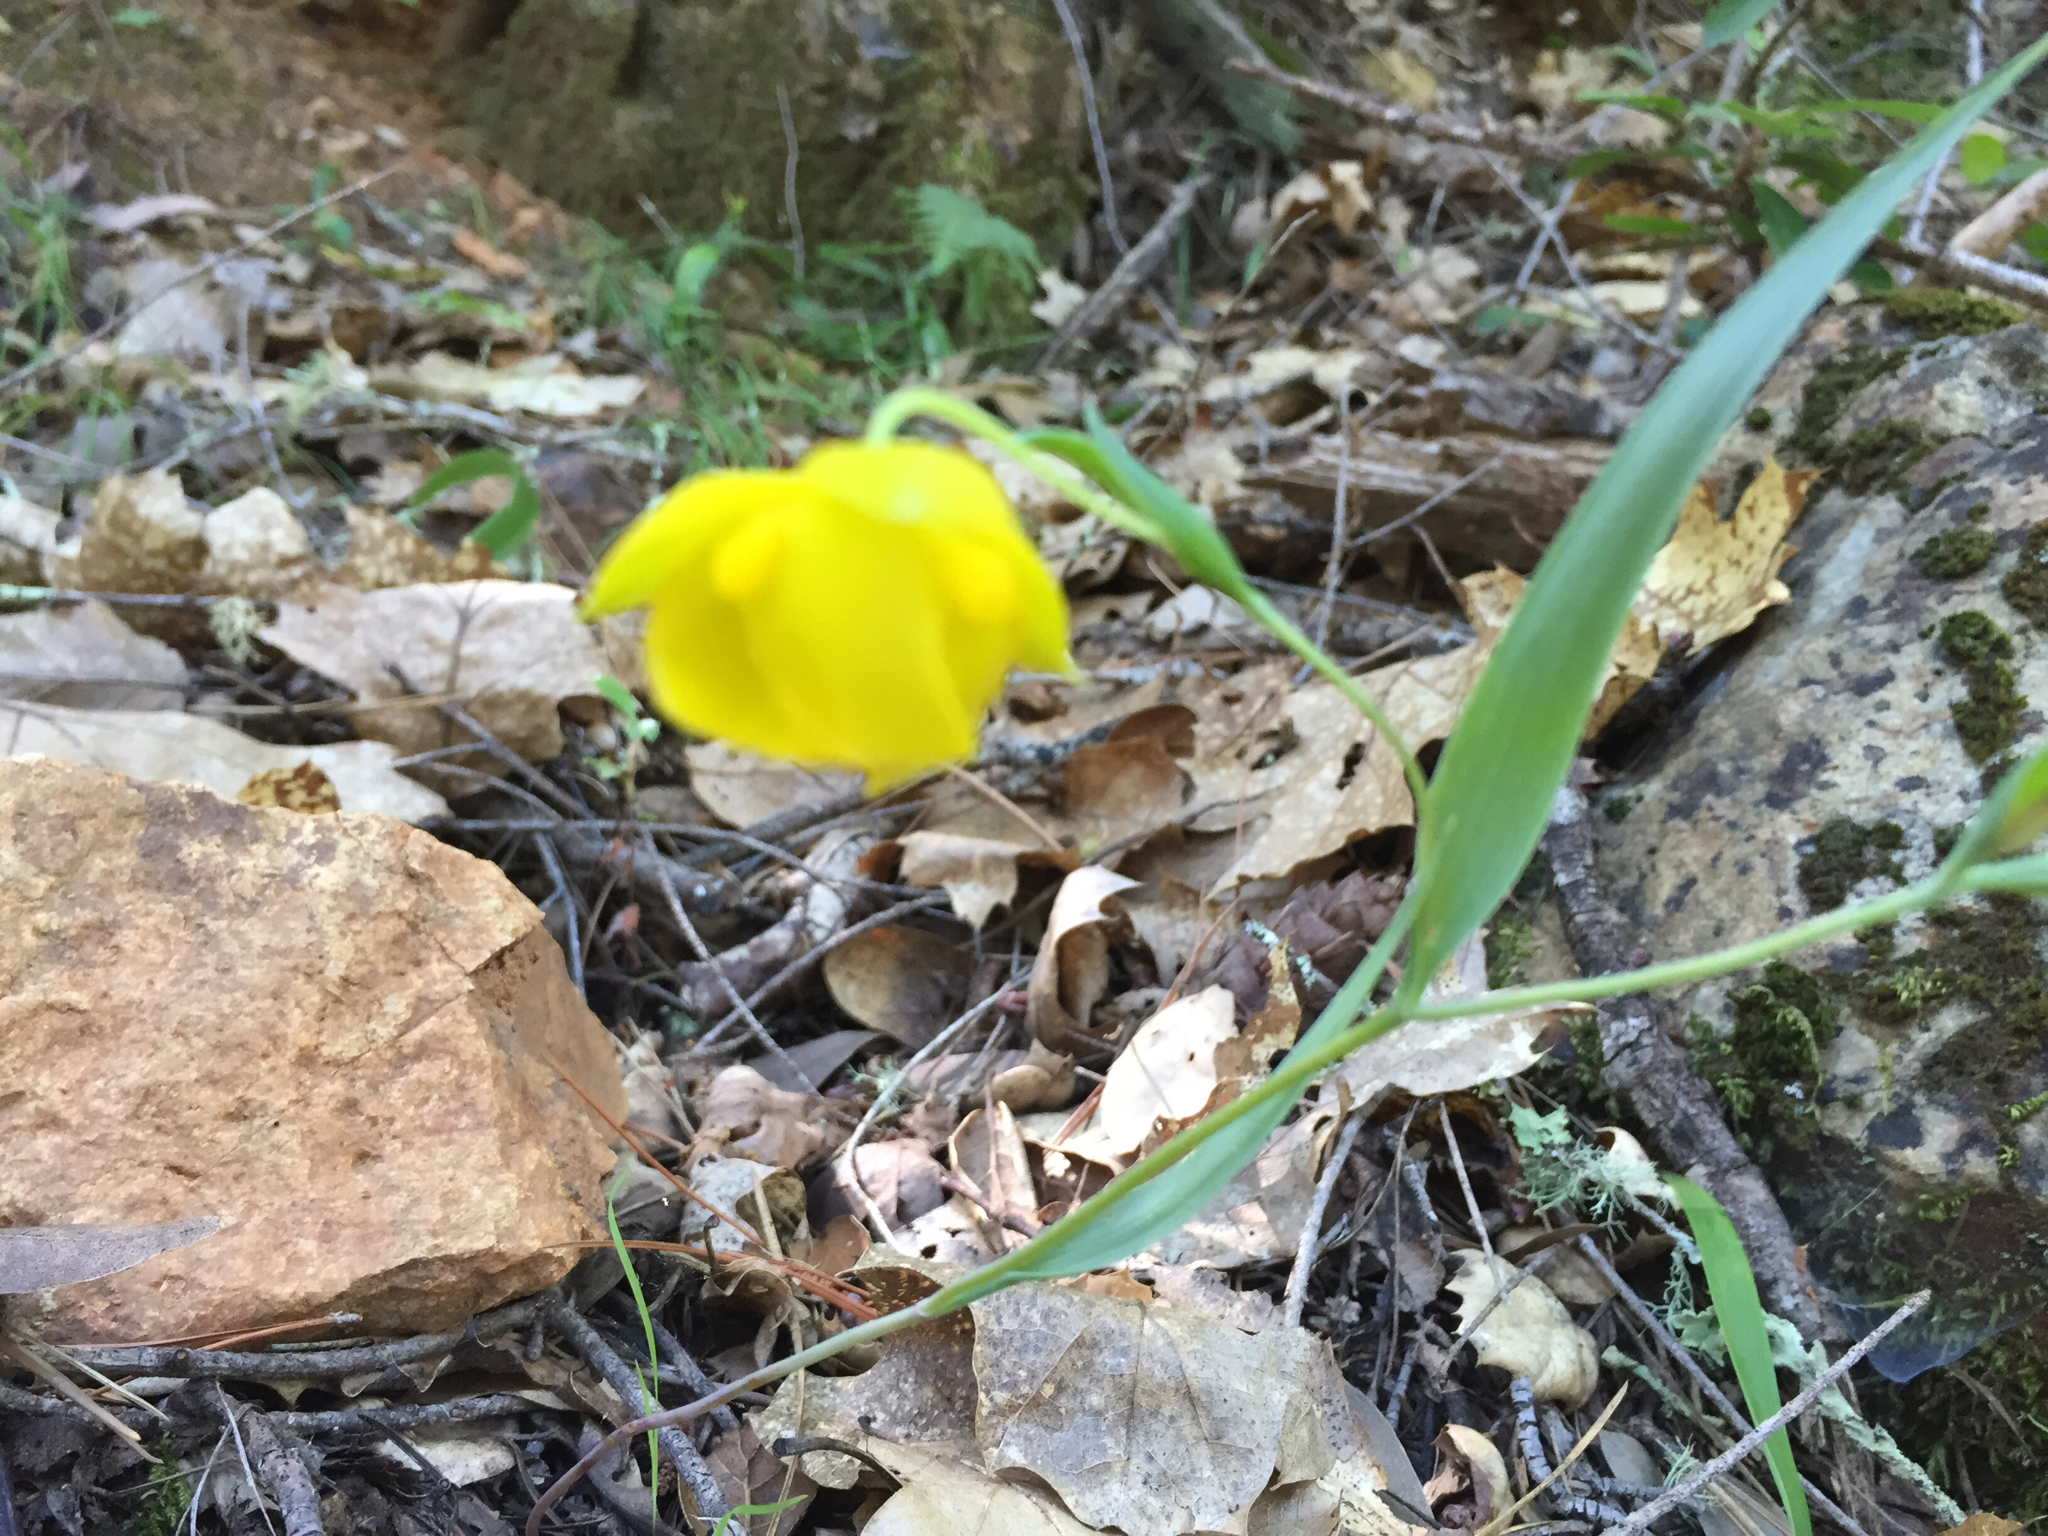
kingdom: Plantae
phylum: Tracheophyta
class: Liliopsida
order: Liliales
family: Liliaceae
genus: Calochortus
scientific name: Calochortus amabilis
